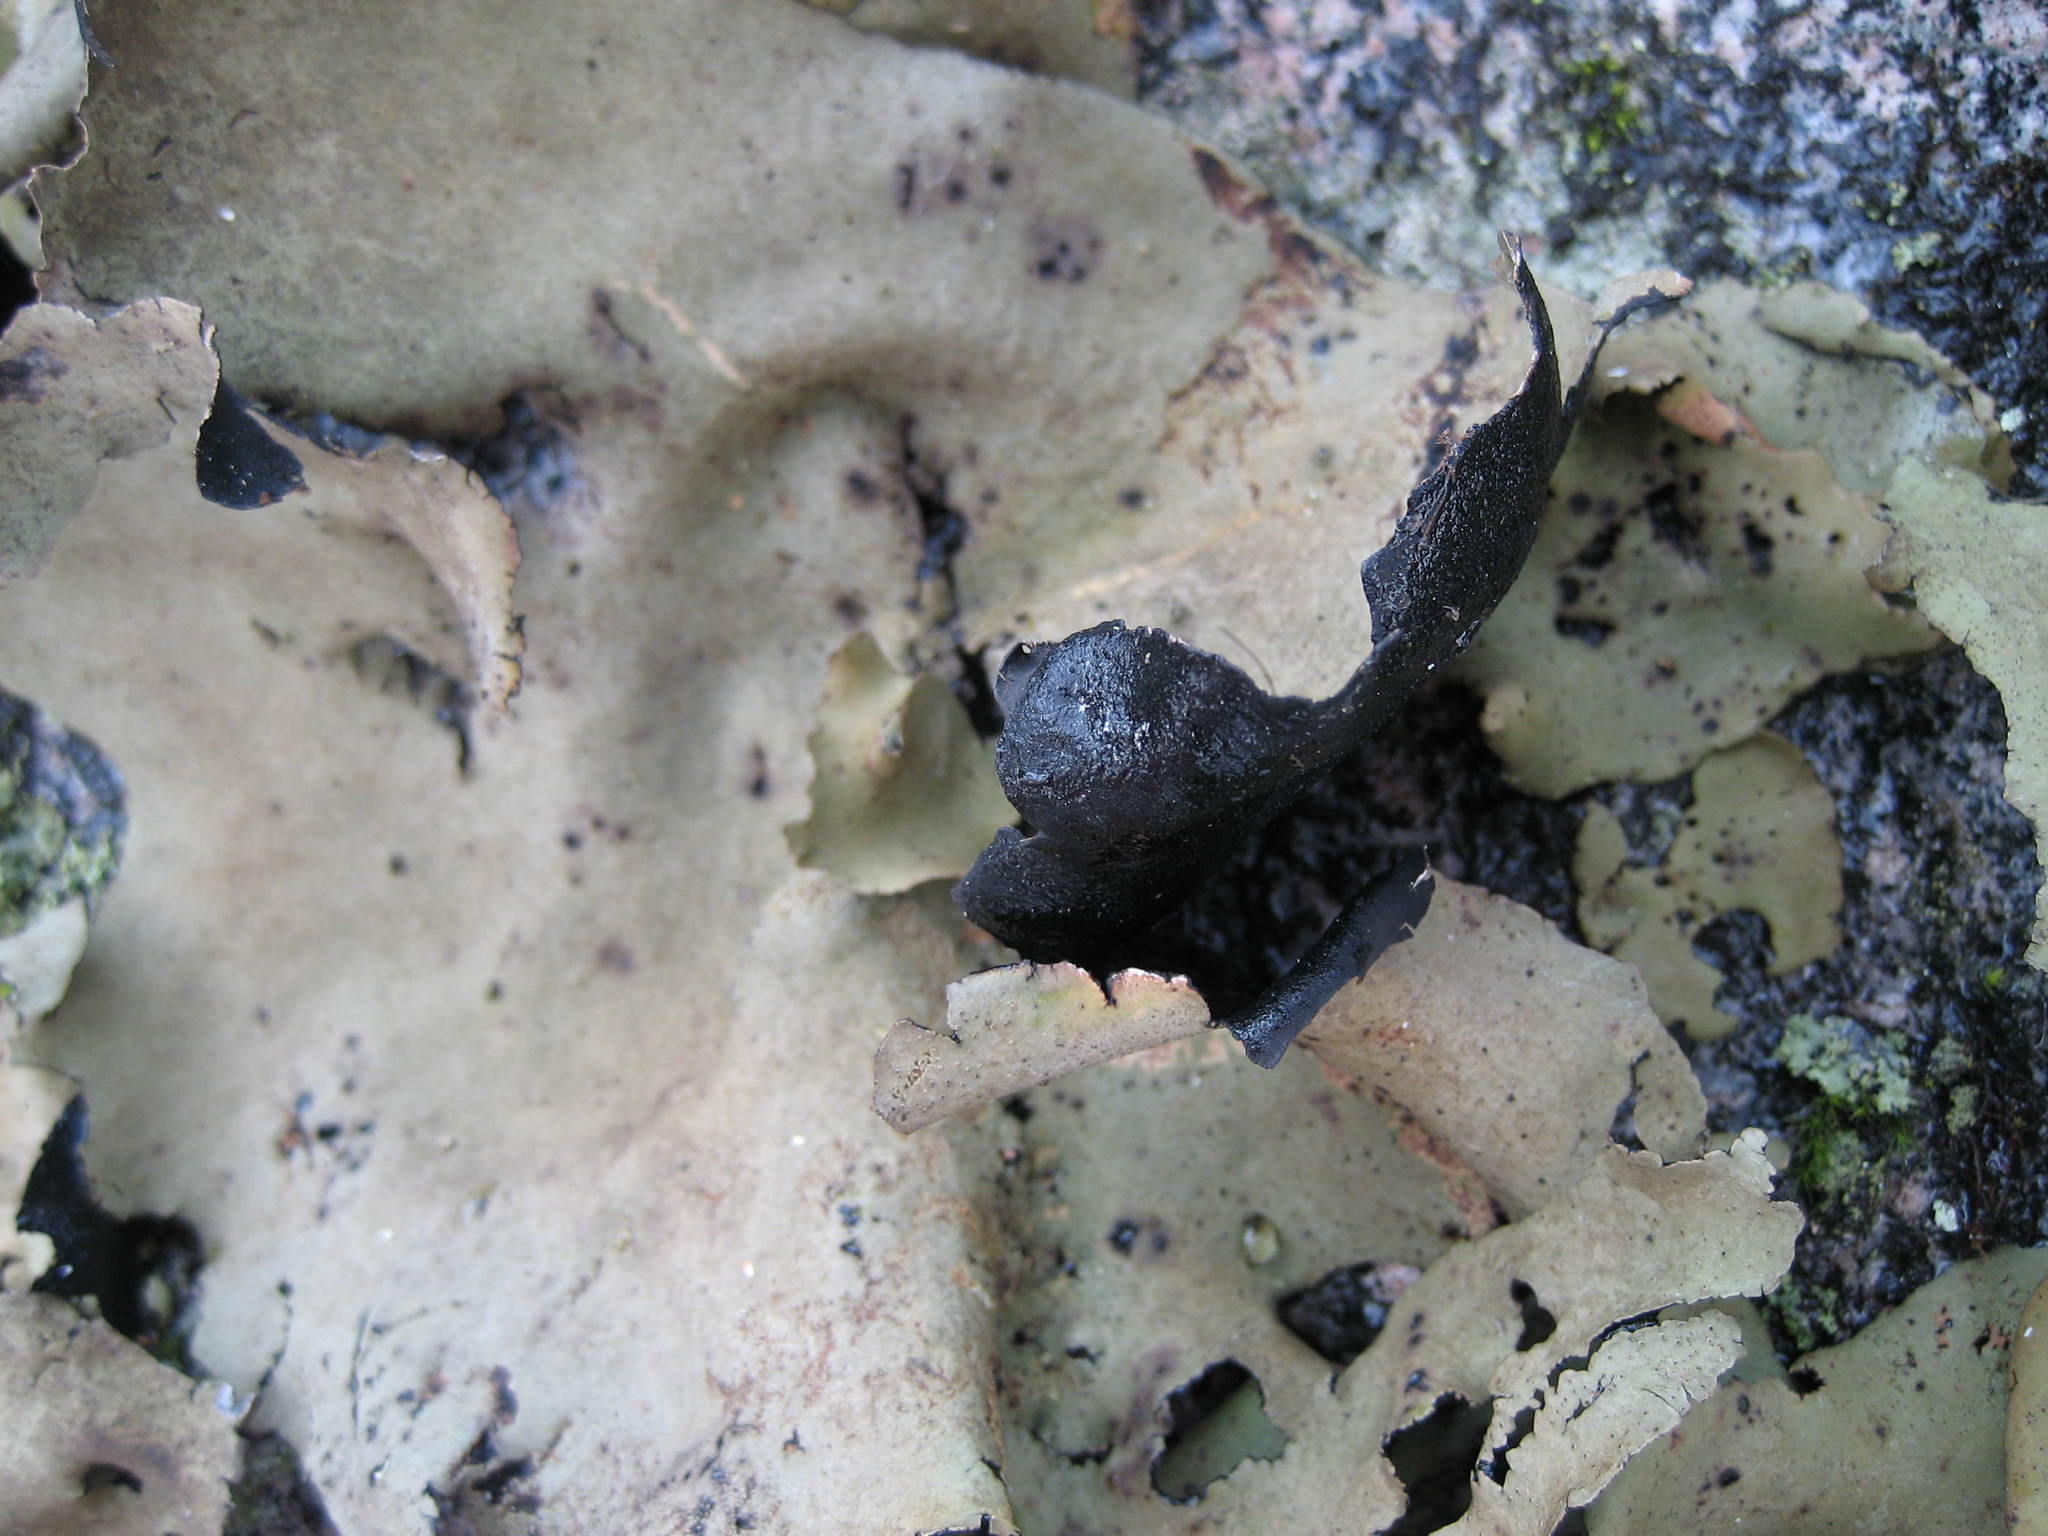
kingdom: Fungi
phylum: Ascomycota
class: Lecanoromycetes
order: Umbilicariales
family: Umbilicariaceae
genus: Umbilicaria
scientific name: Umbilicaria mammulata
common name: Smooth rock tripe
